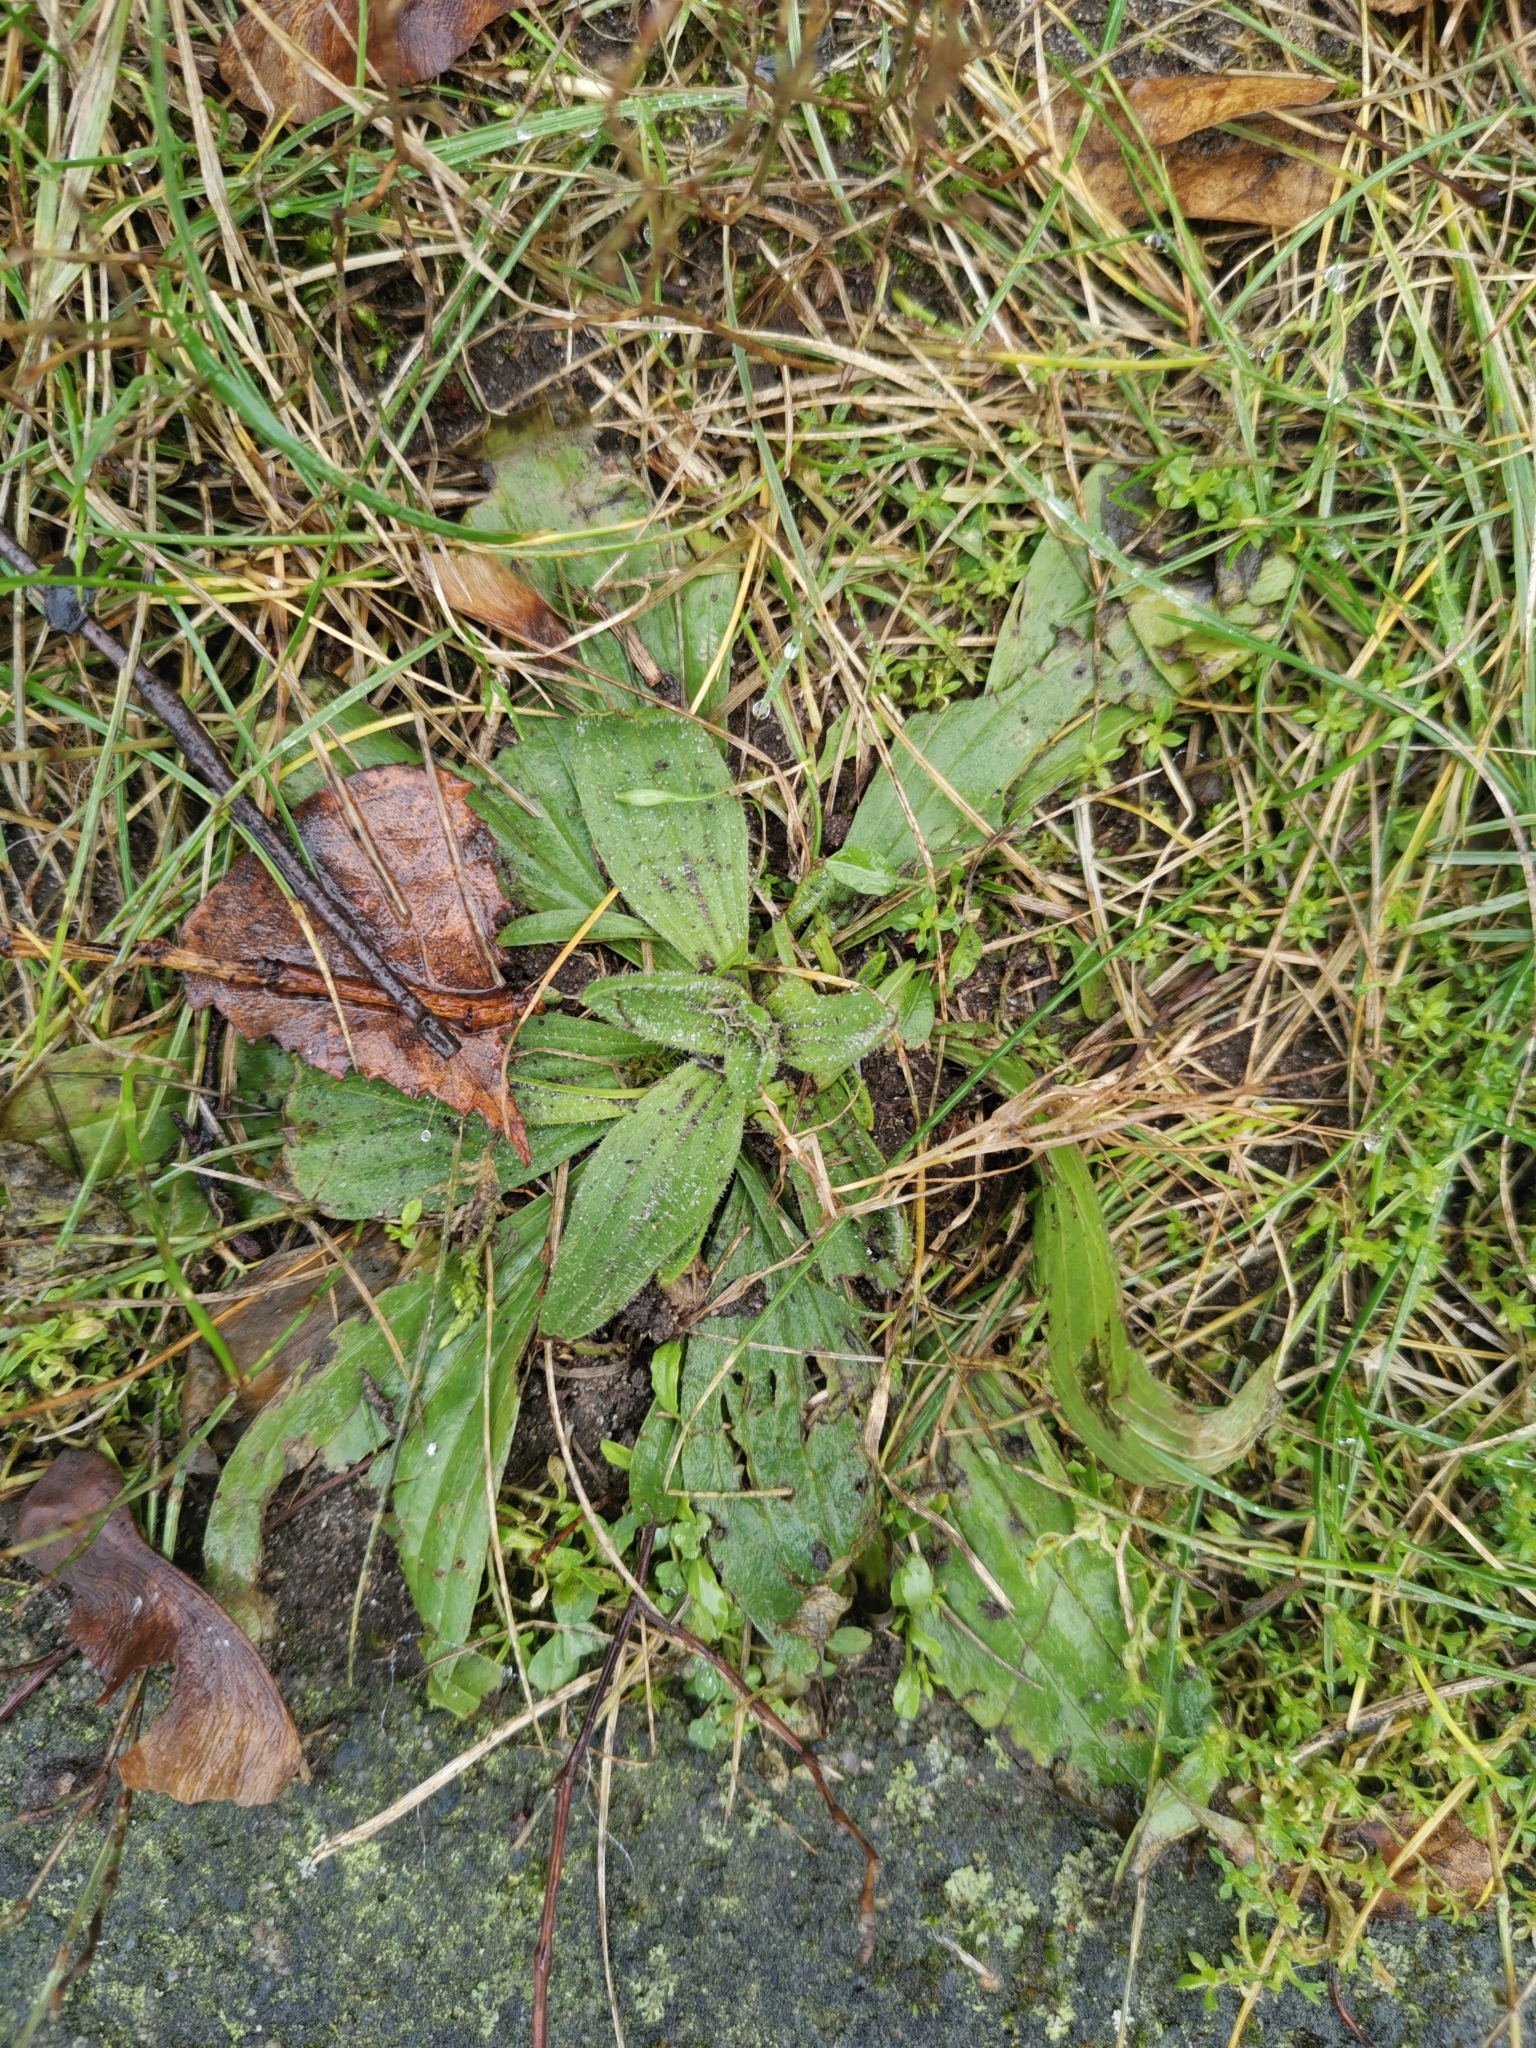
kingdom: Plantae
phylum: Tracheophyta
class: Magnoliopsida
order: Lamiales
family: Plantaginaceae
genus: Plantago
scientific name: Plantago lanceolata
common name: Ribwort plantain
